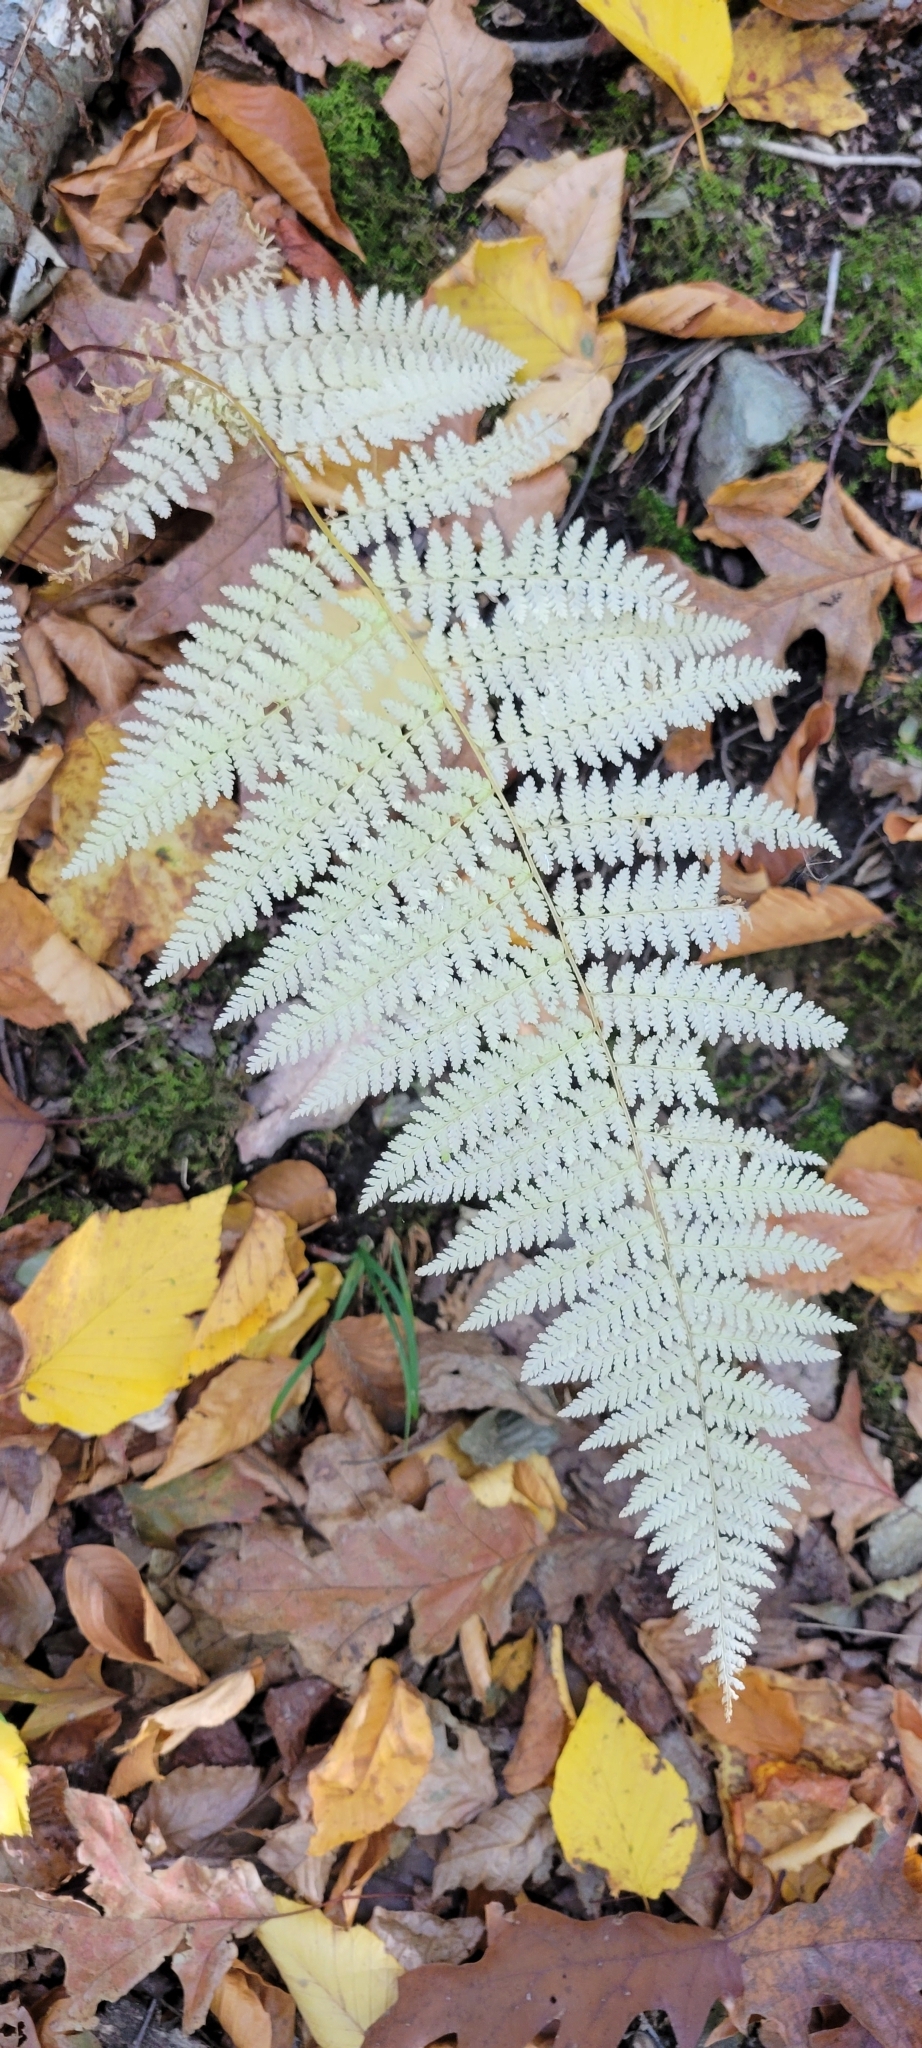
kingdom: Plantae
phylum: Tracheophyta
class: Polypodiopsida
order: Polypodiales
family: Dennstaedtiaceae
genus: Sitobolium
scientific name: Sitobolium punctilobum
